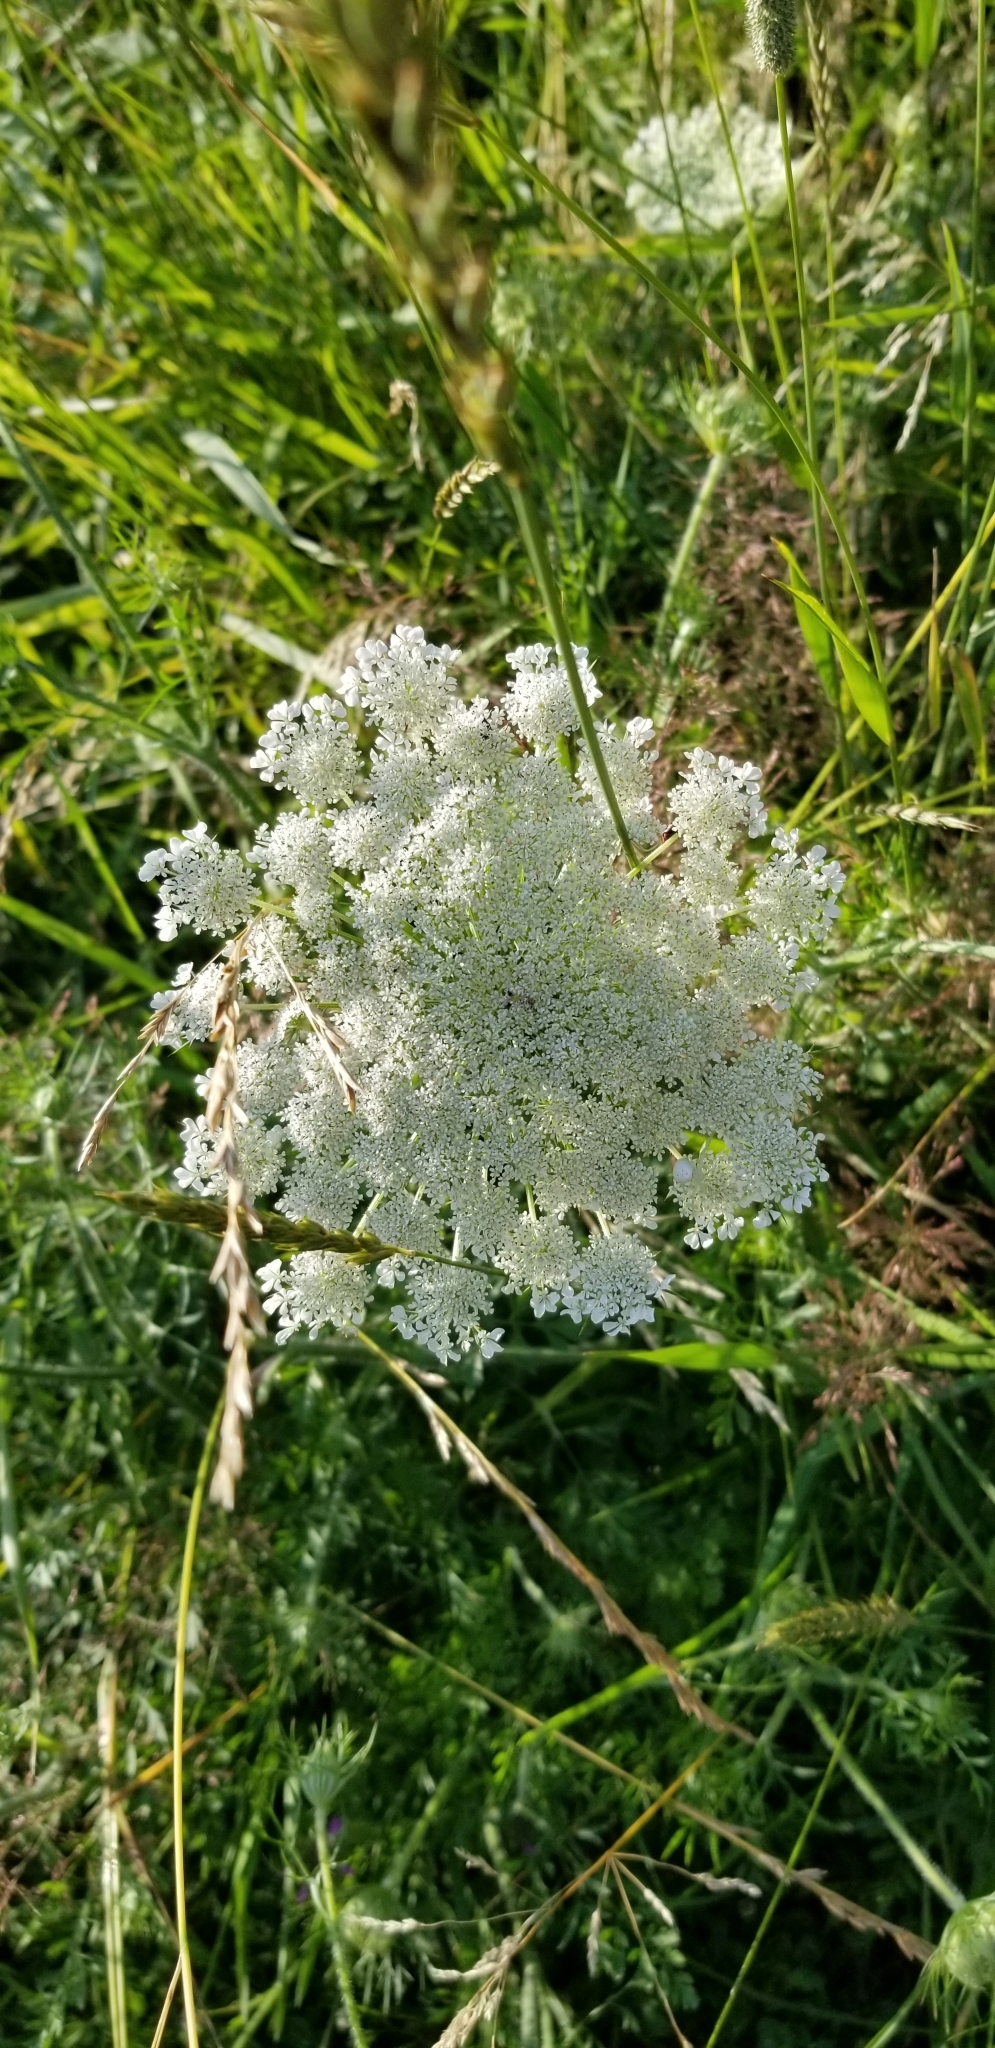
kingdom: Plantae
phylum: Tracheophyta
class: Magnoliopsida
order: Apiales
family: Apiaceae
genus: Daucus
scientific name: Daucus carota
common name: Wild carrot
